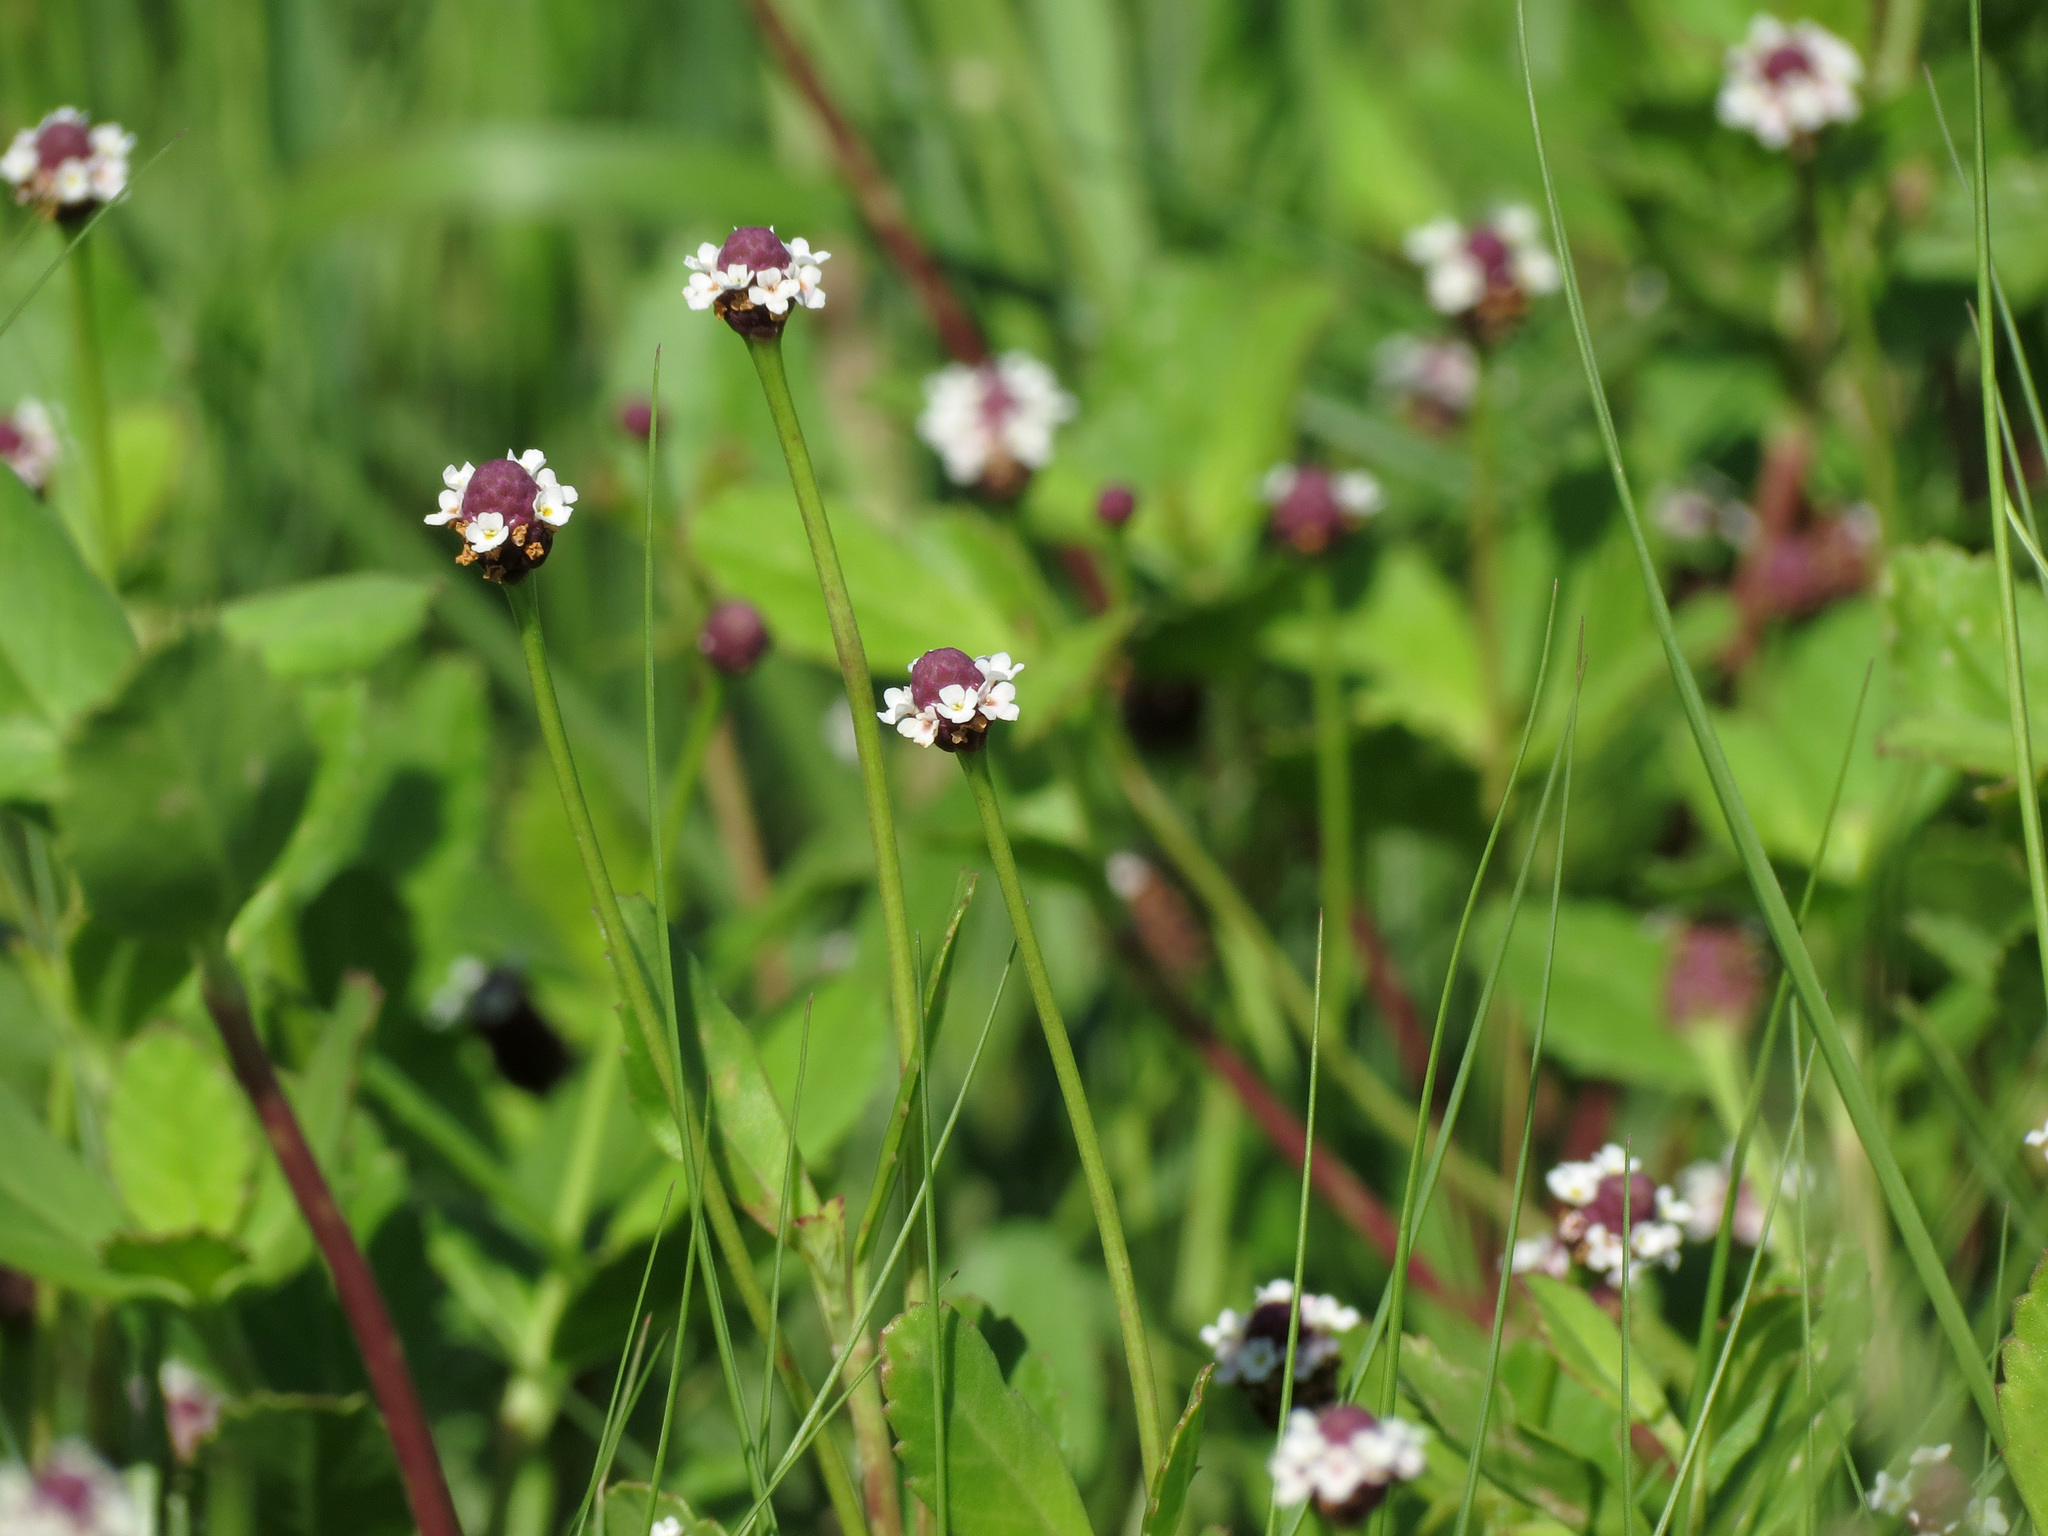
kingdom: Plantae
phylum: Tracheophyta
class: Magnoliopsida
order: Lamiales
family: Verbenaceae
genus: Phyla
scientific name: Phyla nodiflora
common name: Frogfruit
